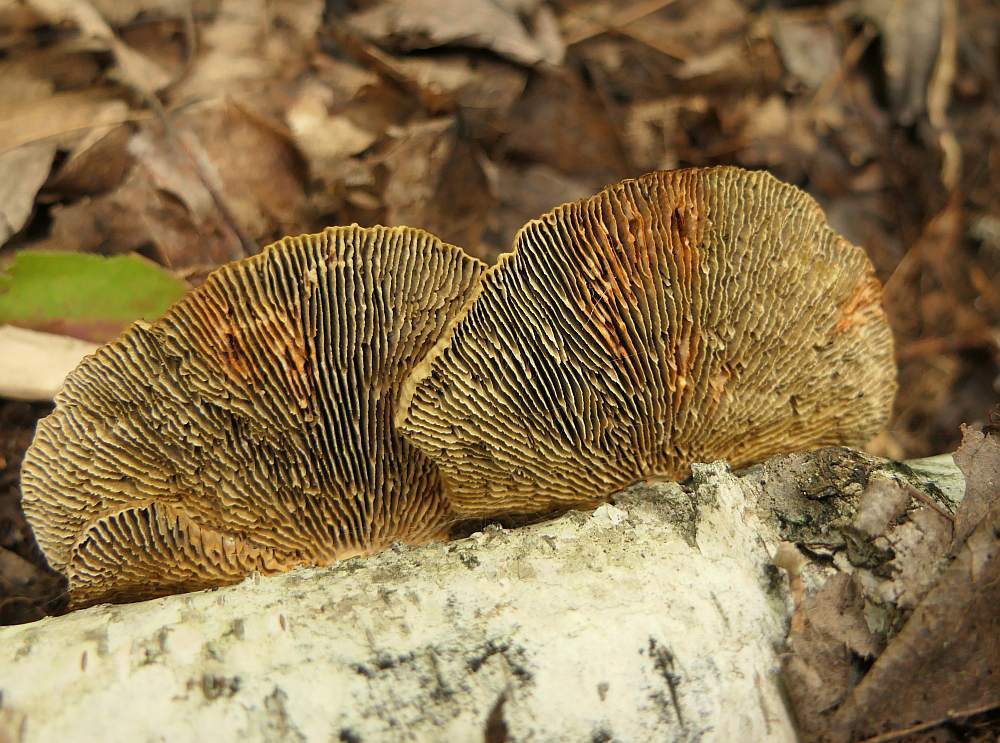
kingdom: Fungi
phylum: Basidiomycota
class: Agaricomycetes
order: Polyporales
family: Polyporaceae
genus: Daedaleopsis
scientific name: Daedaleopsis septentrionalis
